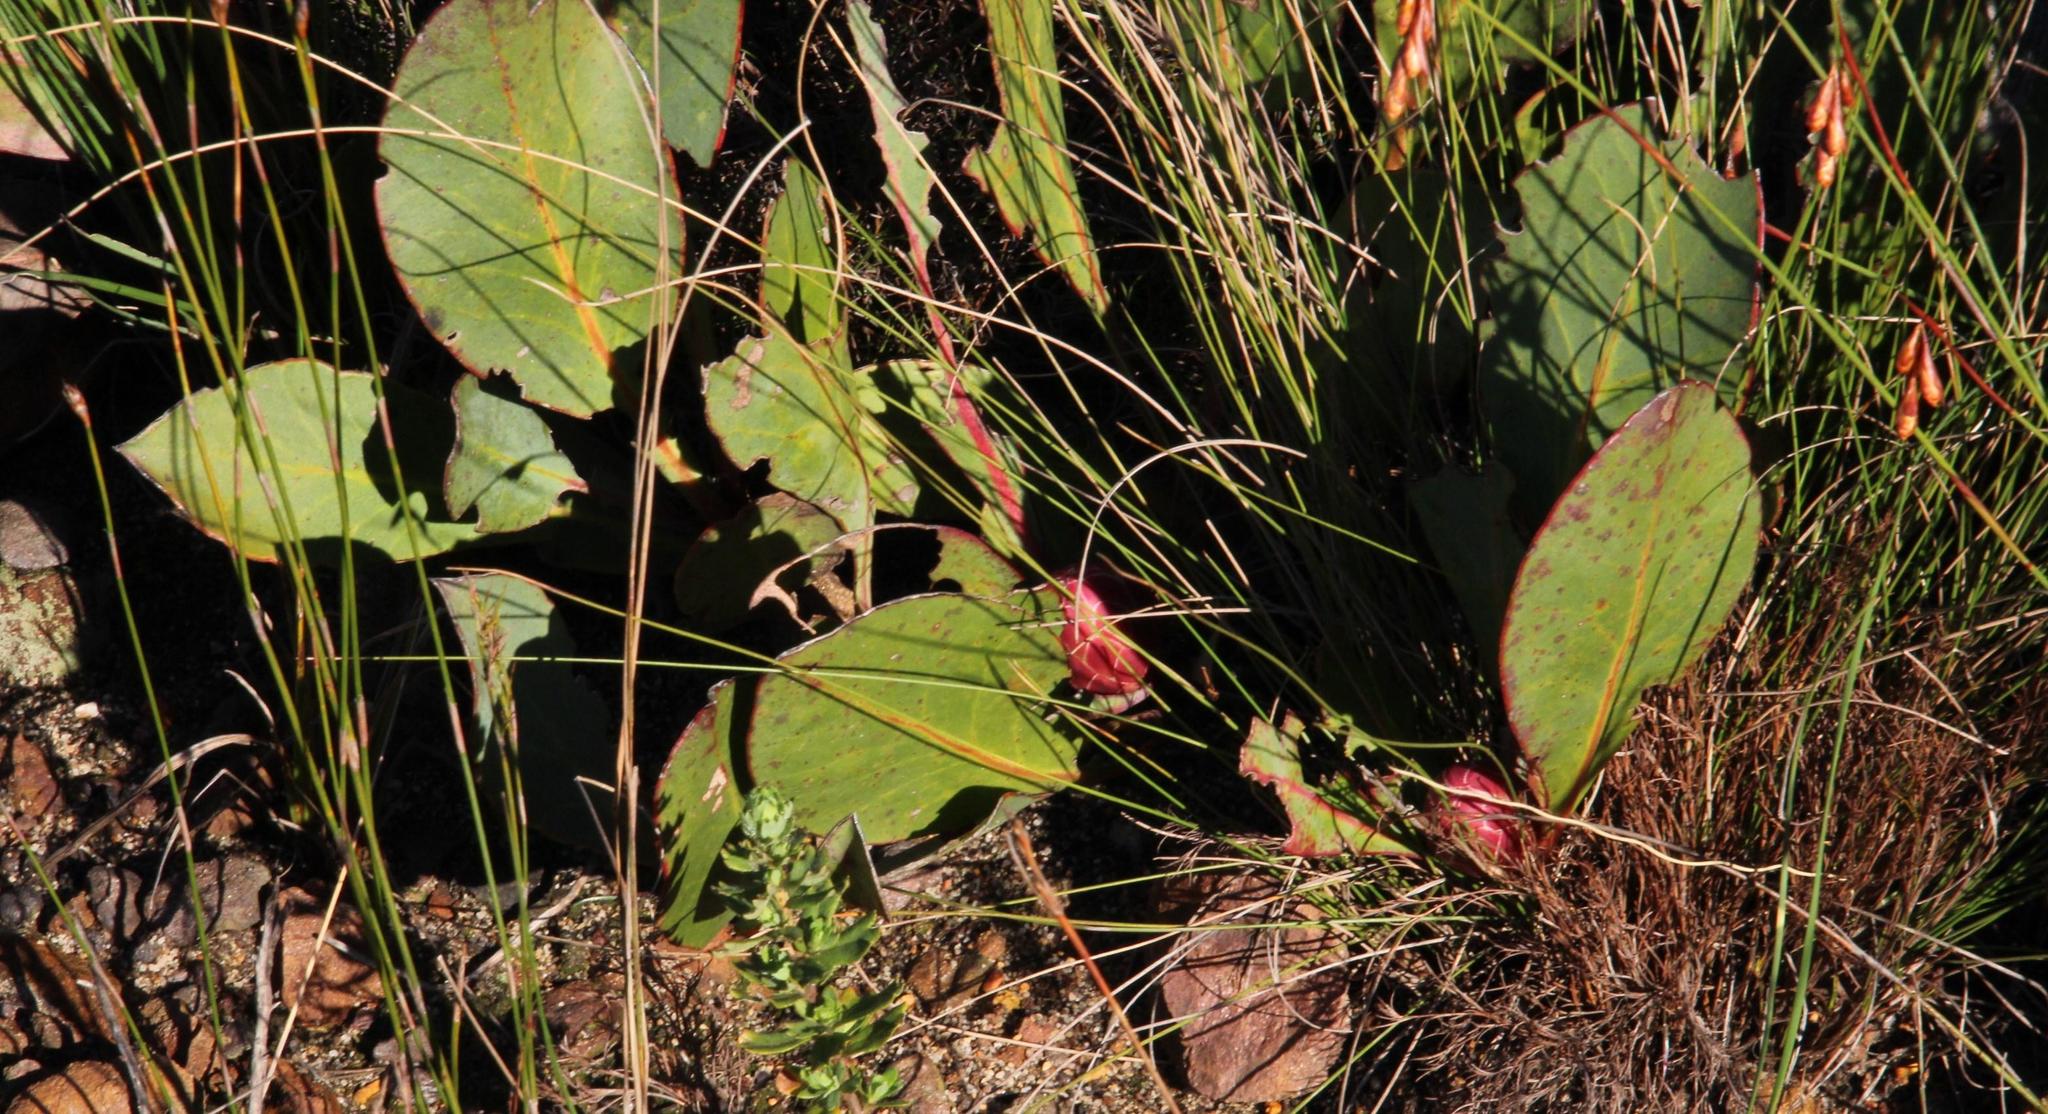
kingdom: Plantae
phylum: Tracheophyta
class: Magnoliopsida
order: Proteales
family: Proteaceae
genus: Protea
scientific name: Protea acaulos
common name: Common ground sugarbush
